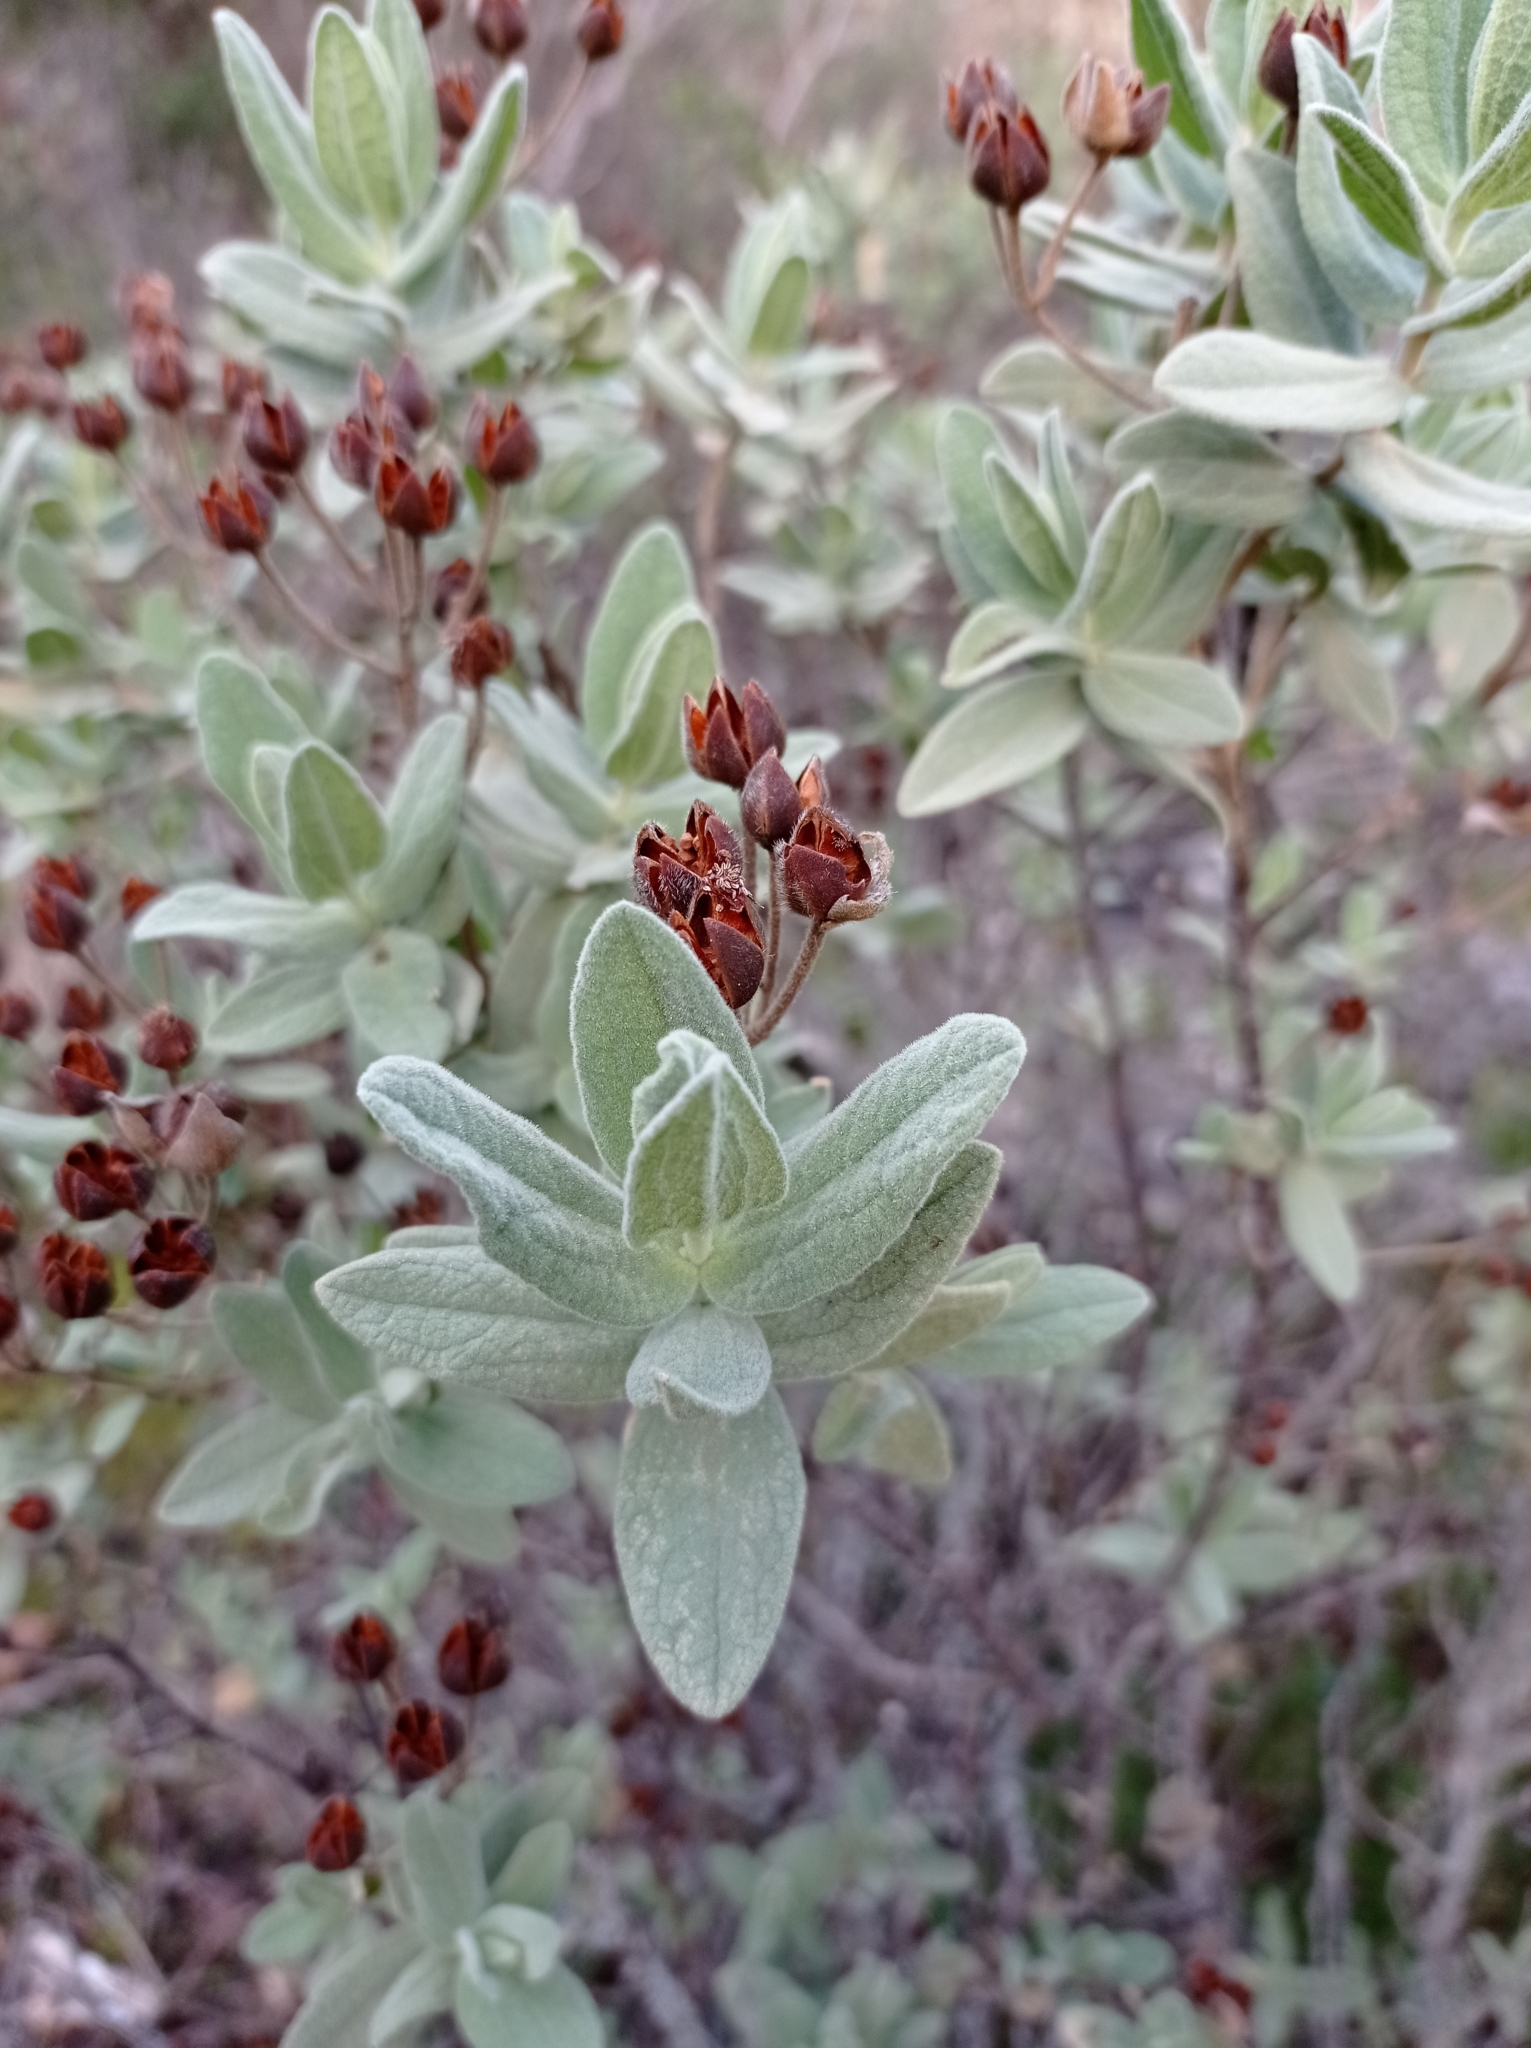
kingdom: Plantae
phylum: Tracheophyta
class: Magnoliopsida
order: Malvales
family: Cistaceae
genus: Cistus
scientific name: Cistus albidus
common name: White-leaf rock-rose
